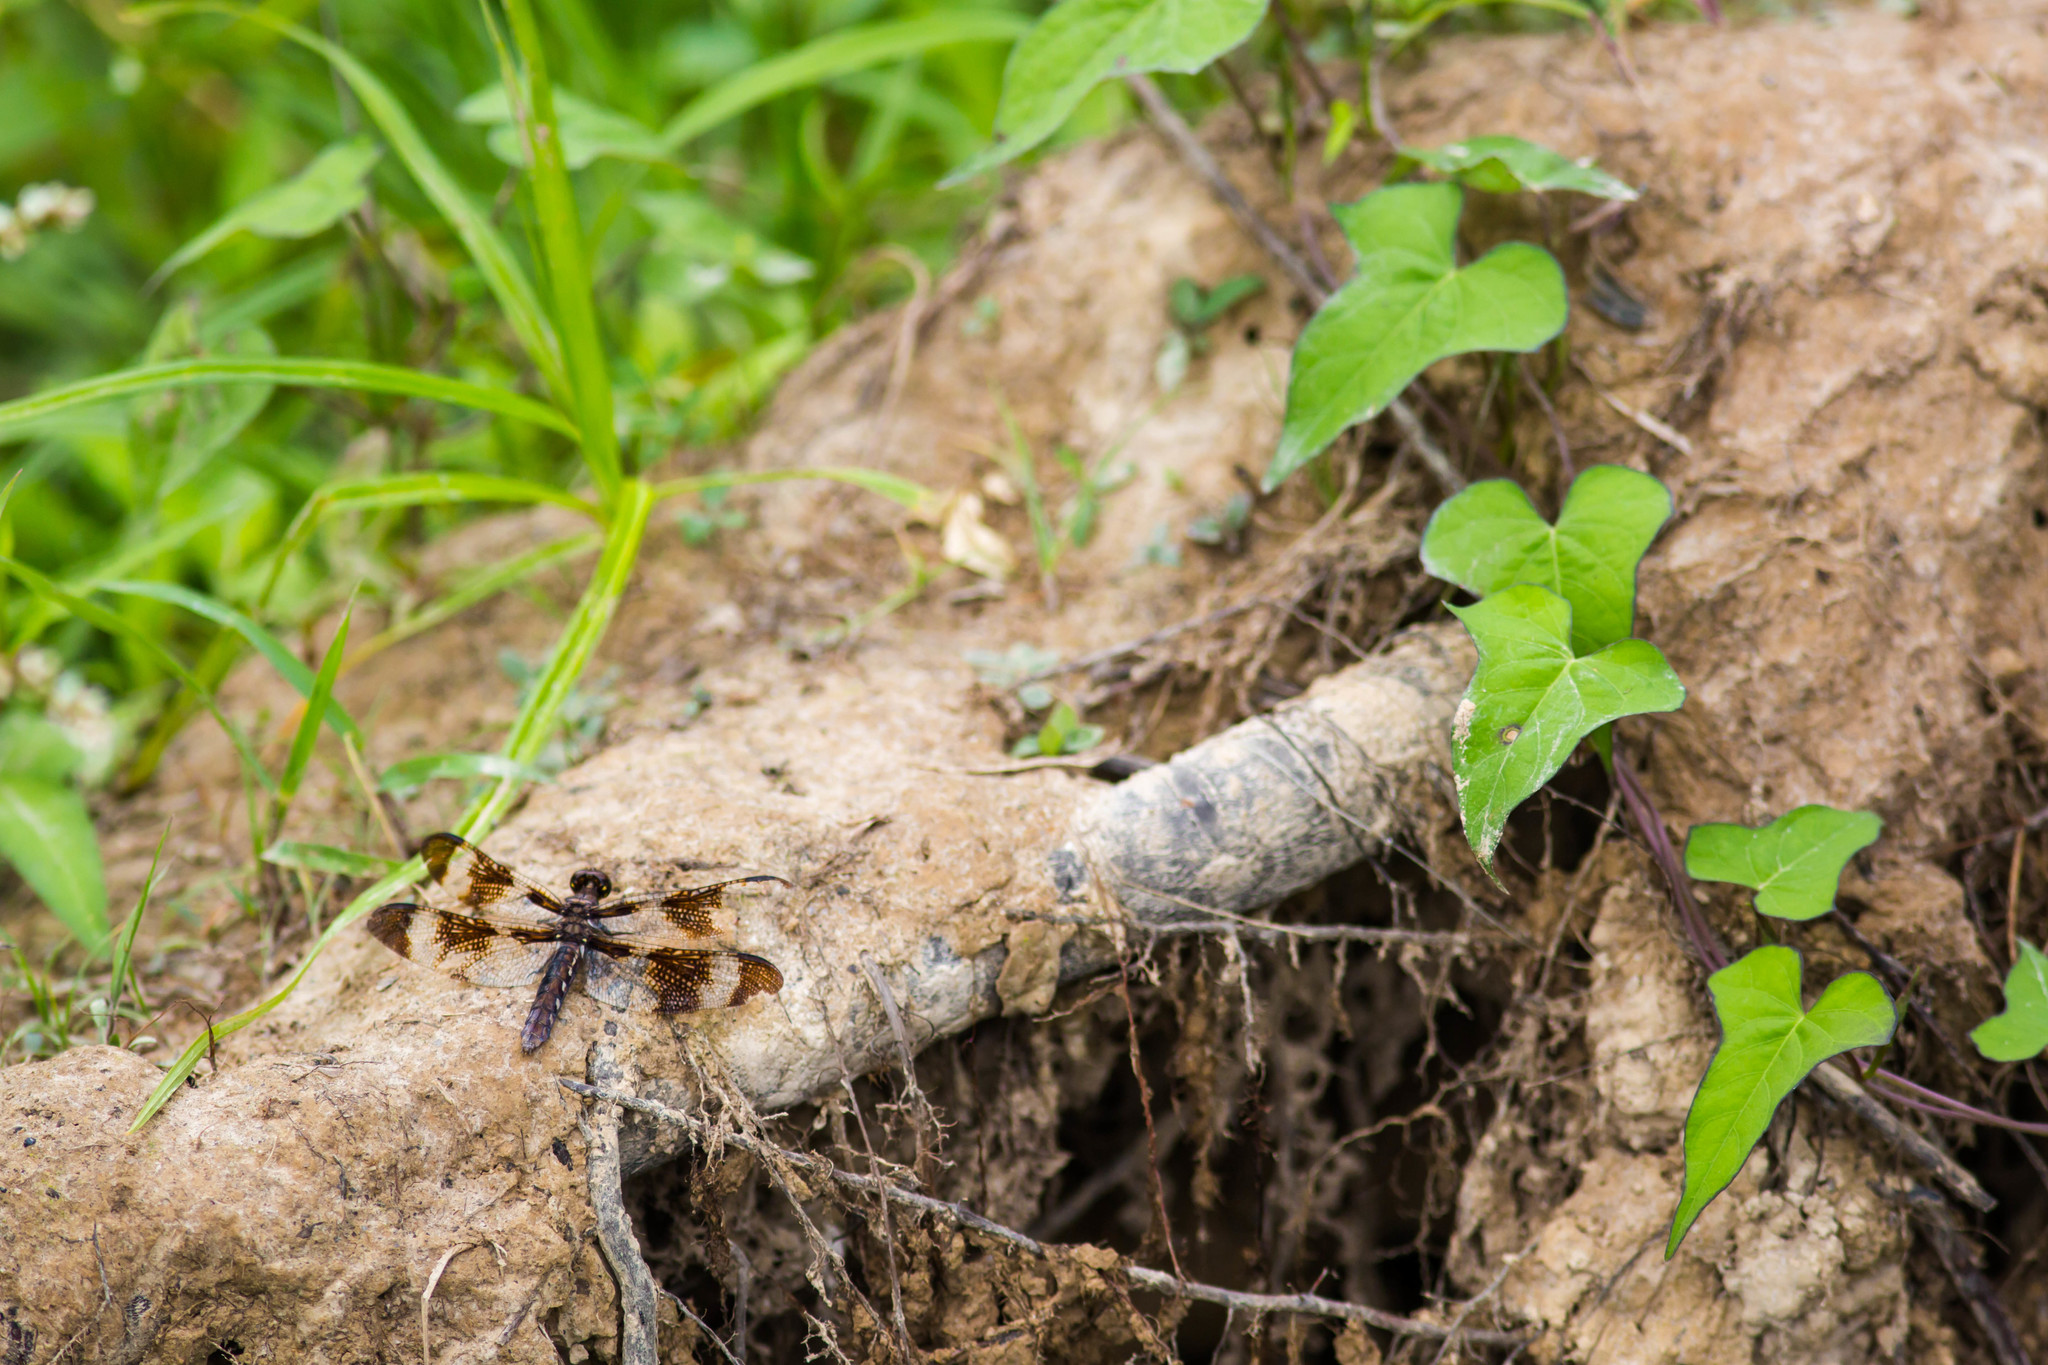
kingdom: Animalia
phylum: Arthropoda
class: Insecta
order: Odonata
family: Libellulidae
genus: Plathemis
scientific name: Plathemis lydia
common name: Common whitetail
